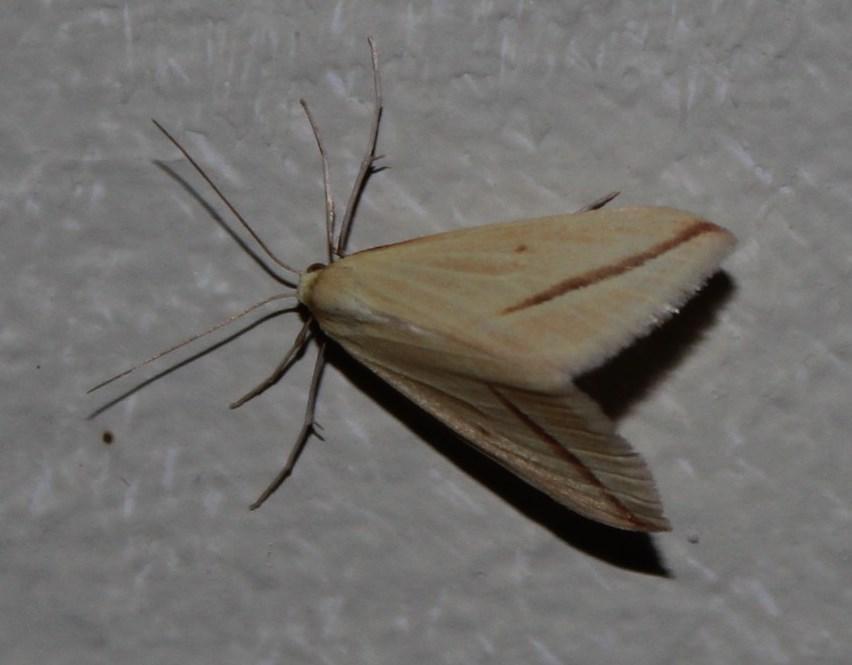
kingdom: Animalia
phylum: Arthropoda
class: Insecta
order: Lepidoptera
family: Geometridae
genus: Rhodometra
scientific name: Rhodometra sacraria
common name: Vestal
